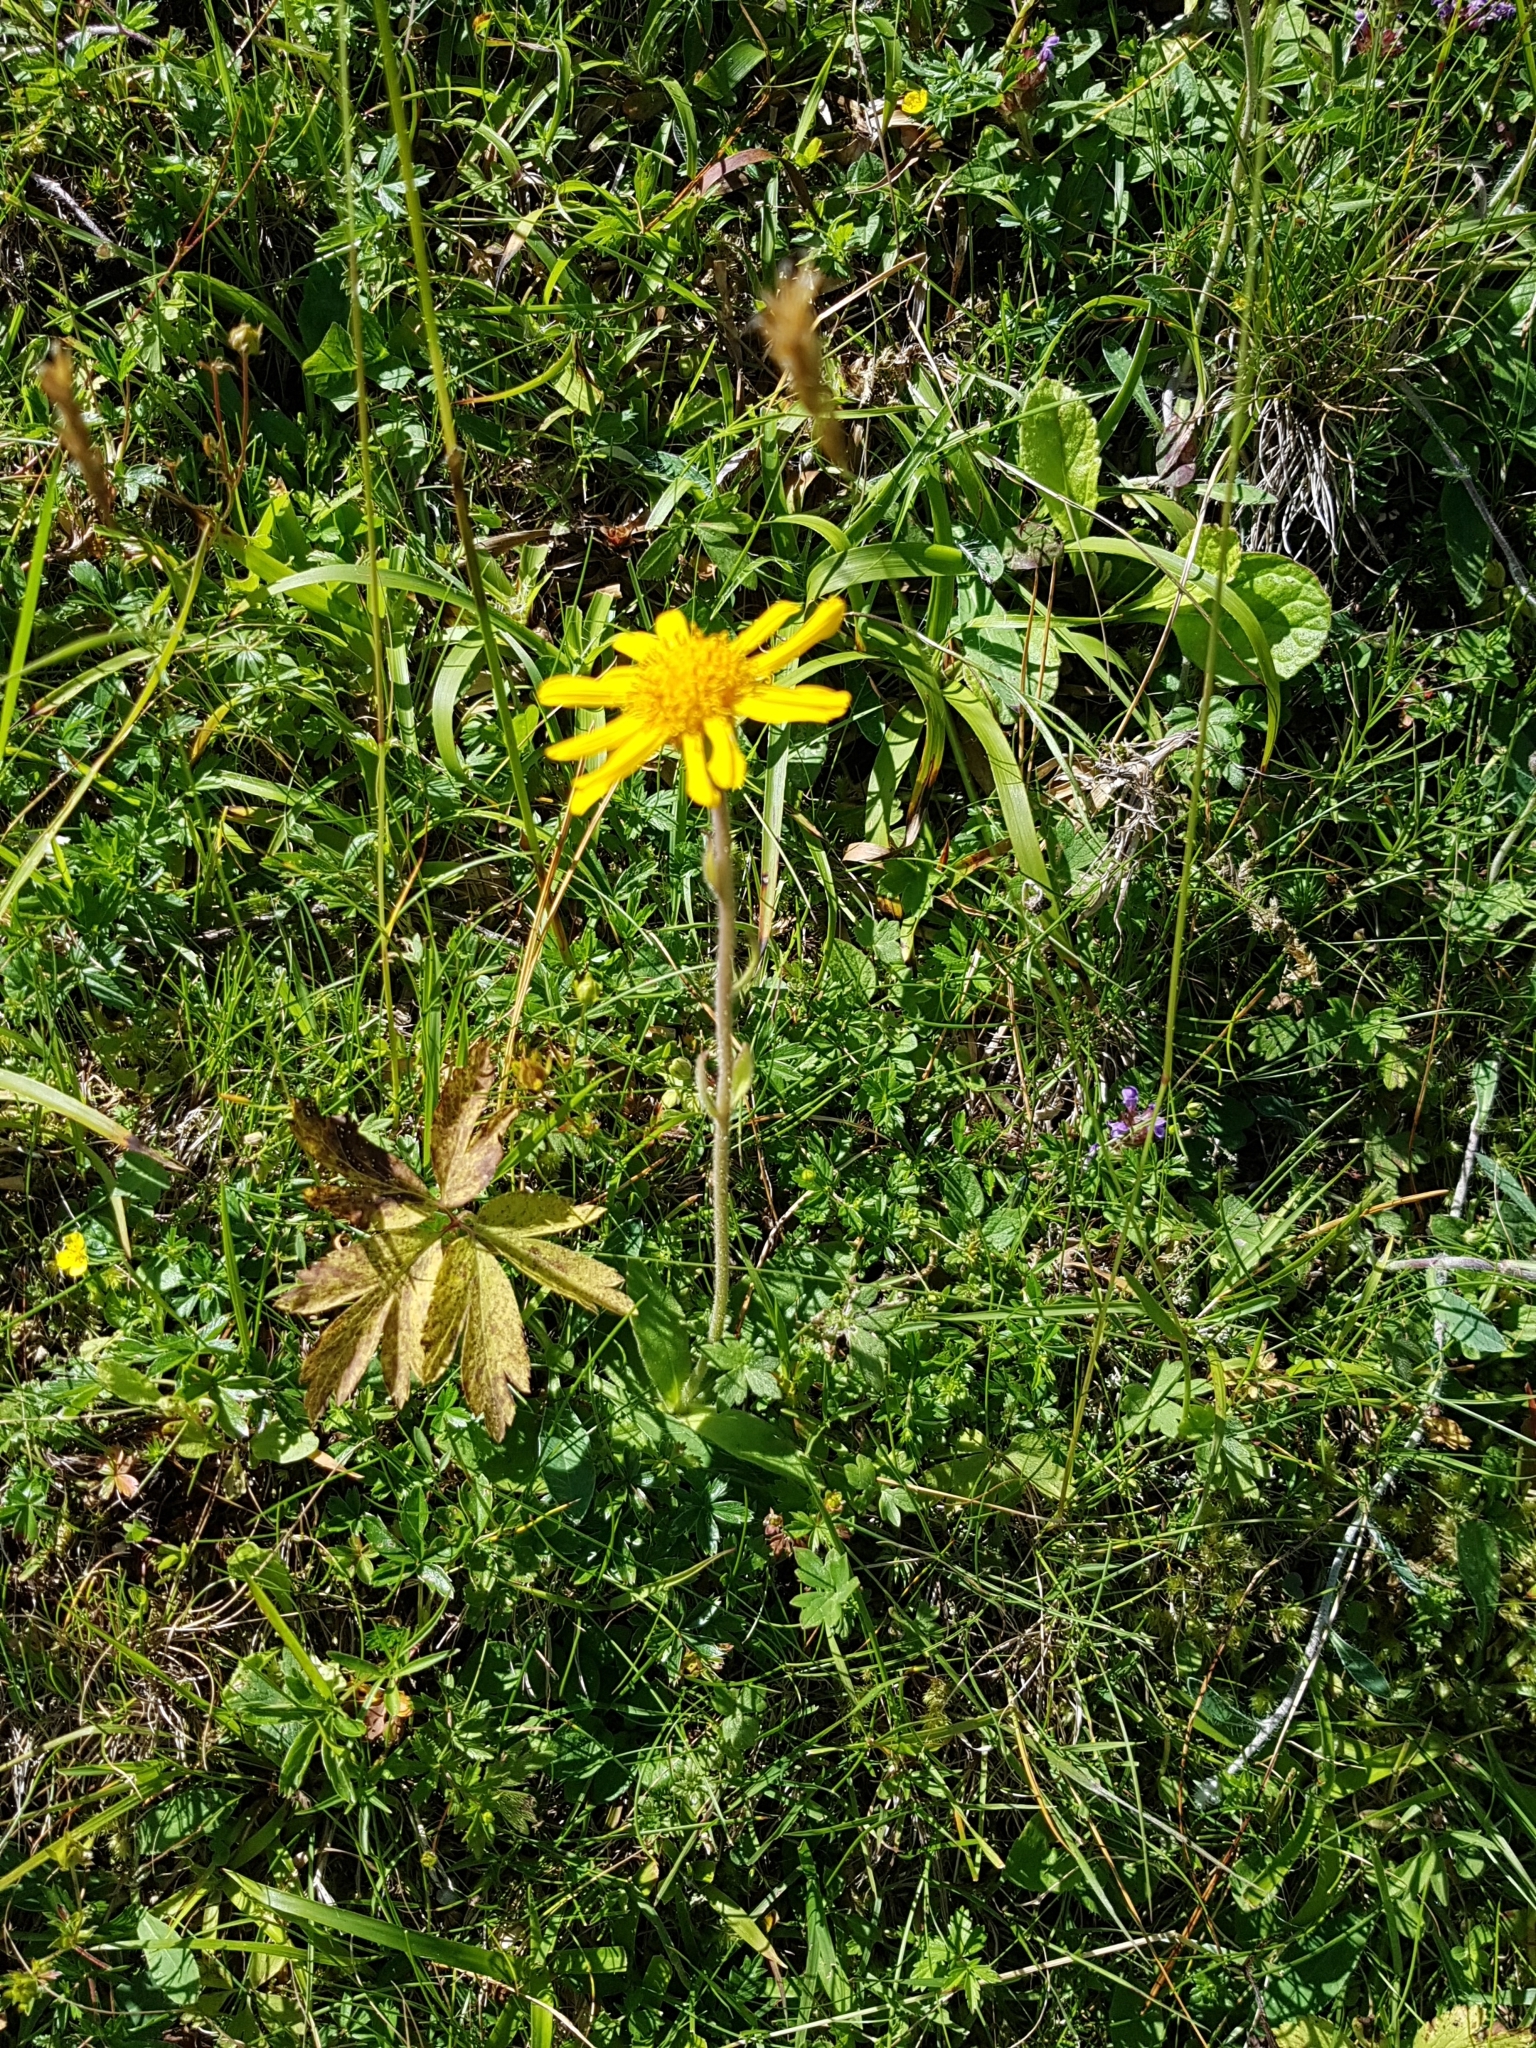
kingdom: Plantae
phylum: Tracheophyta
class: Magnoliopsida
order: Asterales
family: Asteraceae
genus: Arnica
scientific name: Arnica montana
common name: Leopard's bane
